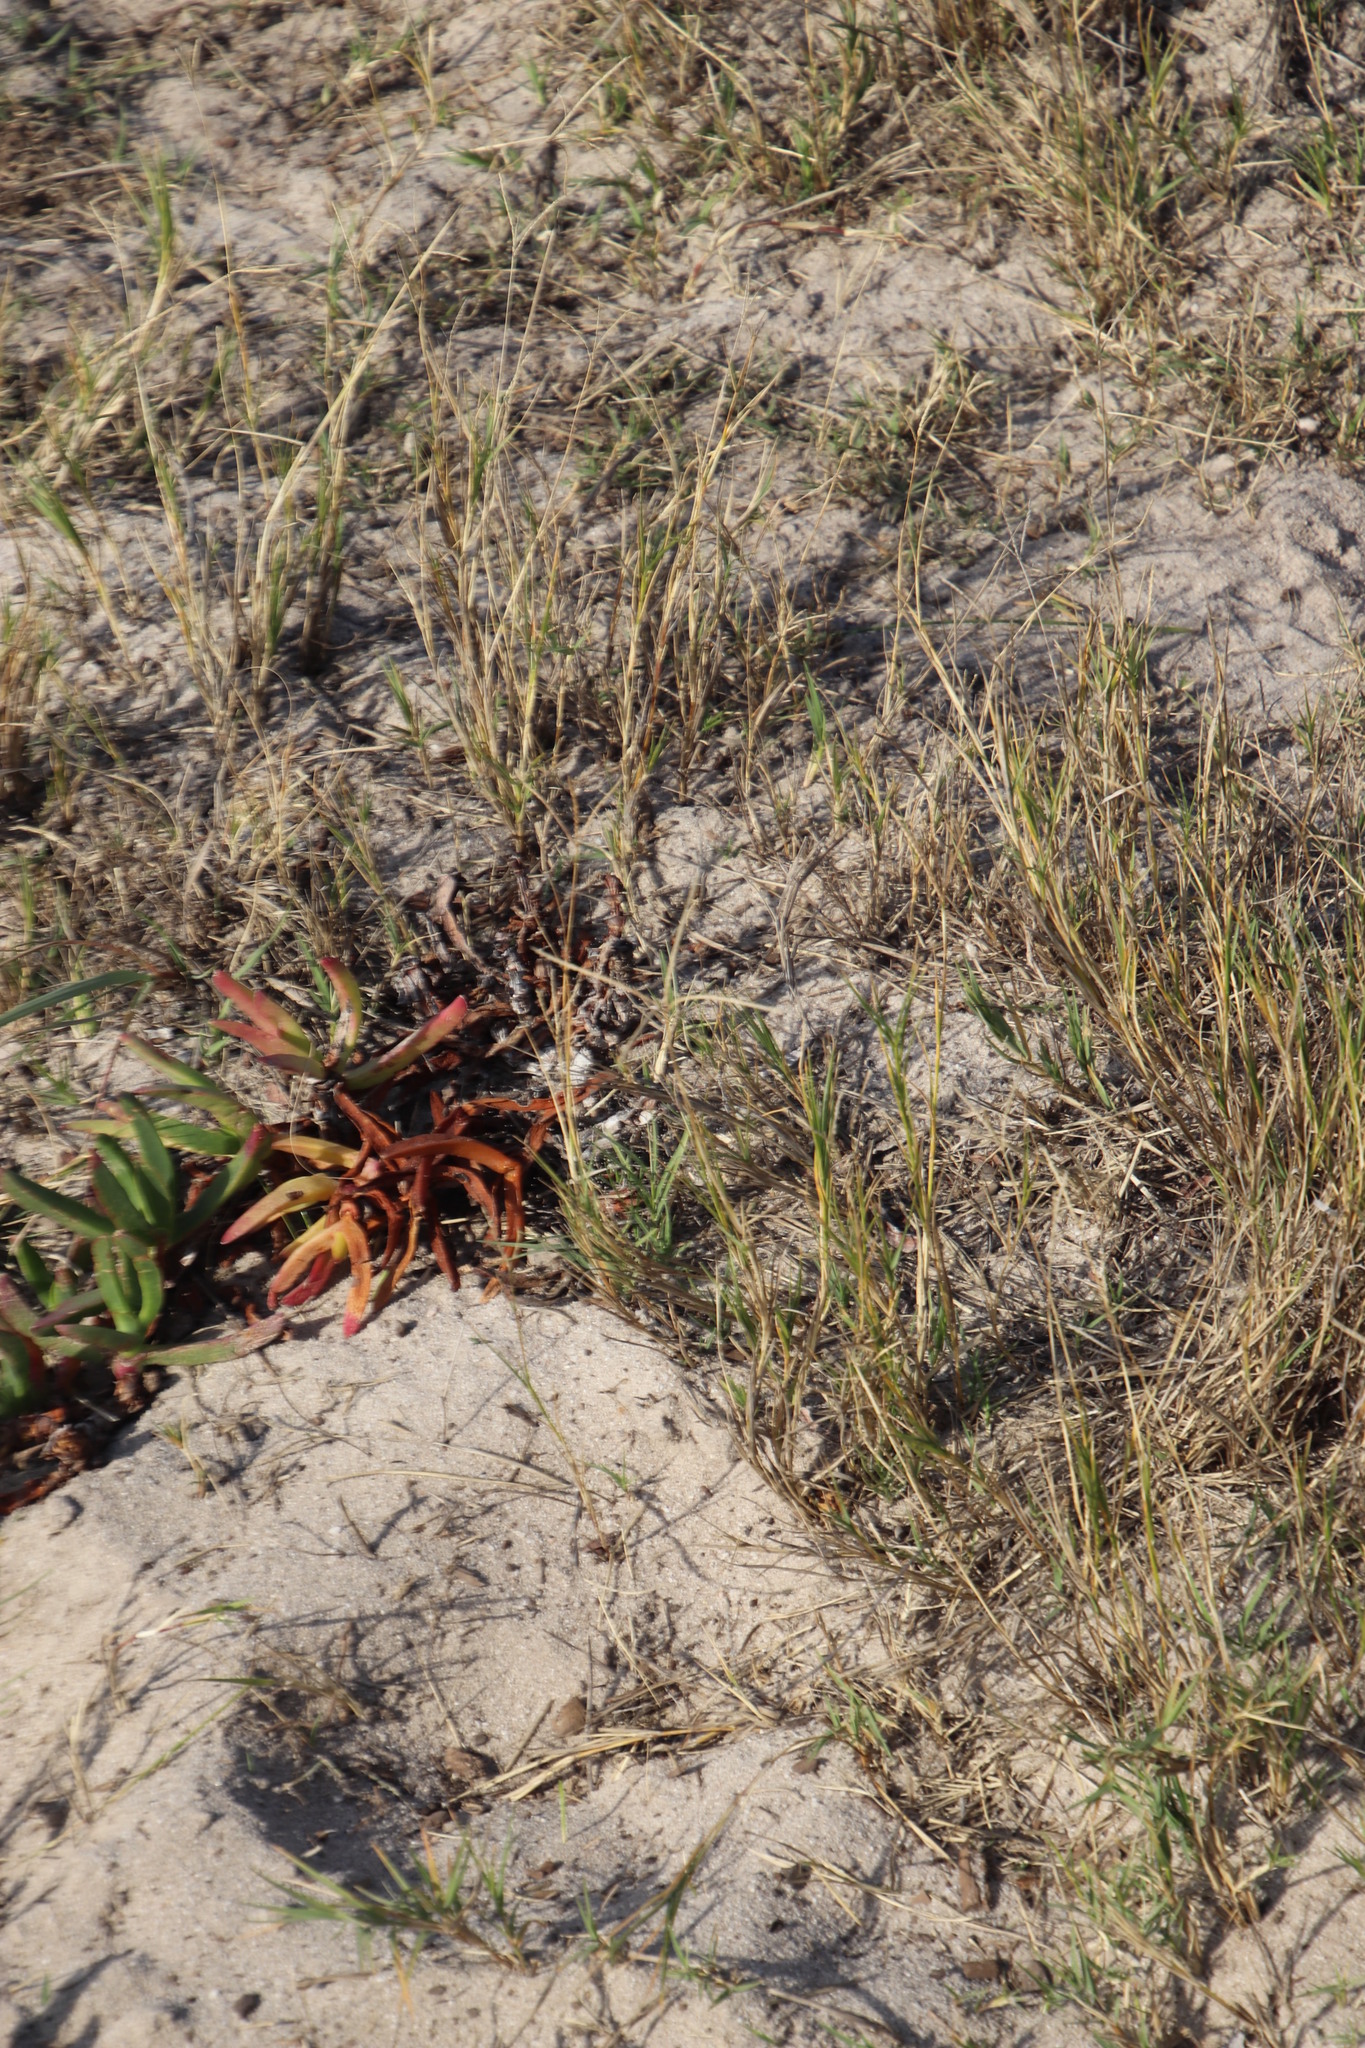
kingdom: Plantae
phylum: Tracheophyta
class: Liliopsida
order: Poales
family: Poaceae
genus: Cynodon
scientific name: Cynodon dactylon
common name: Bermuda grass
